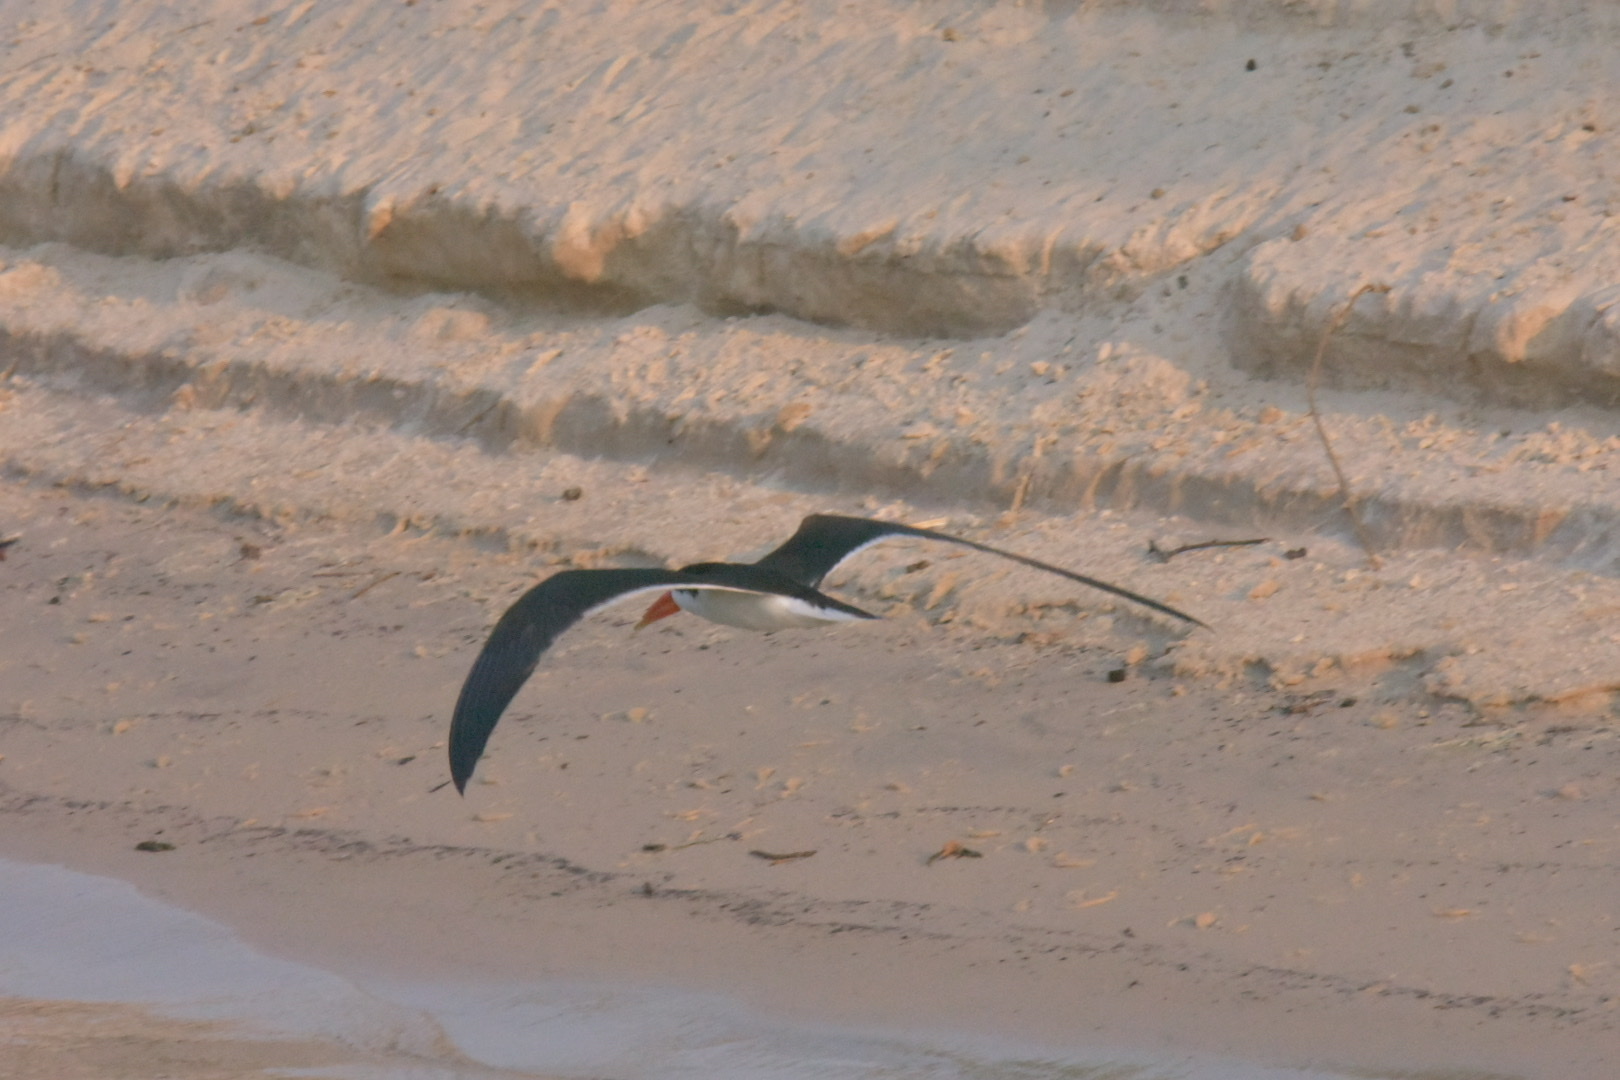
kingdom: Animalia
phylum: Chordata
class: Aves
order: Charadriiformes
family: Laridae
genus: Rynchops
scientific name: Rynchops flavirostris
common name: African skimmer
